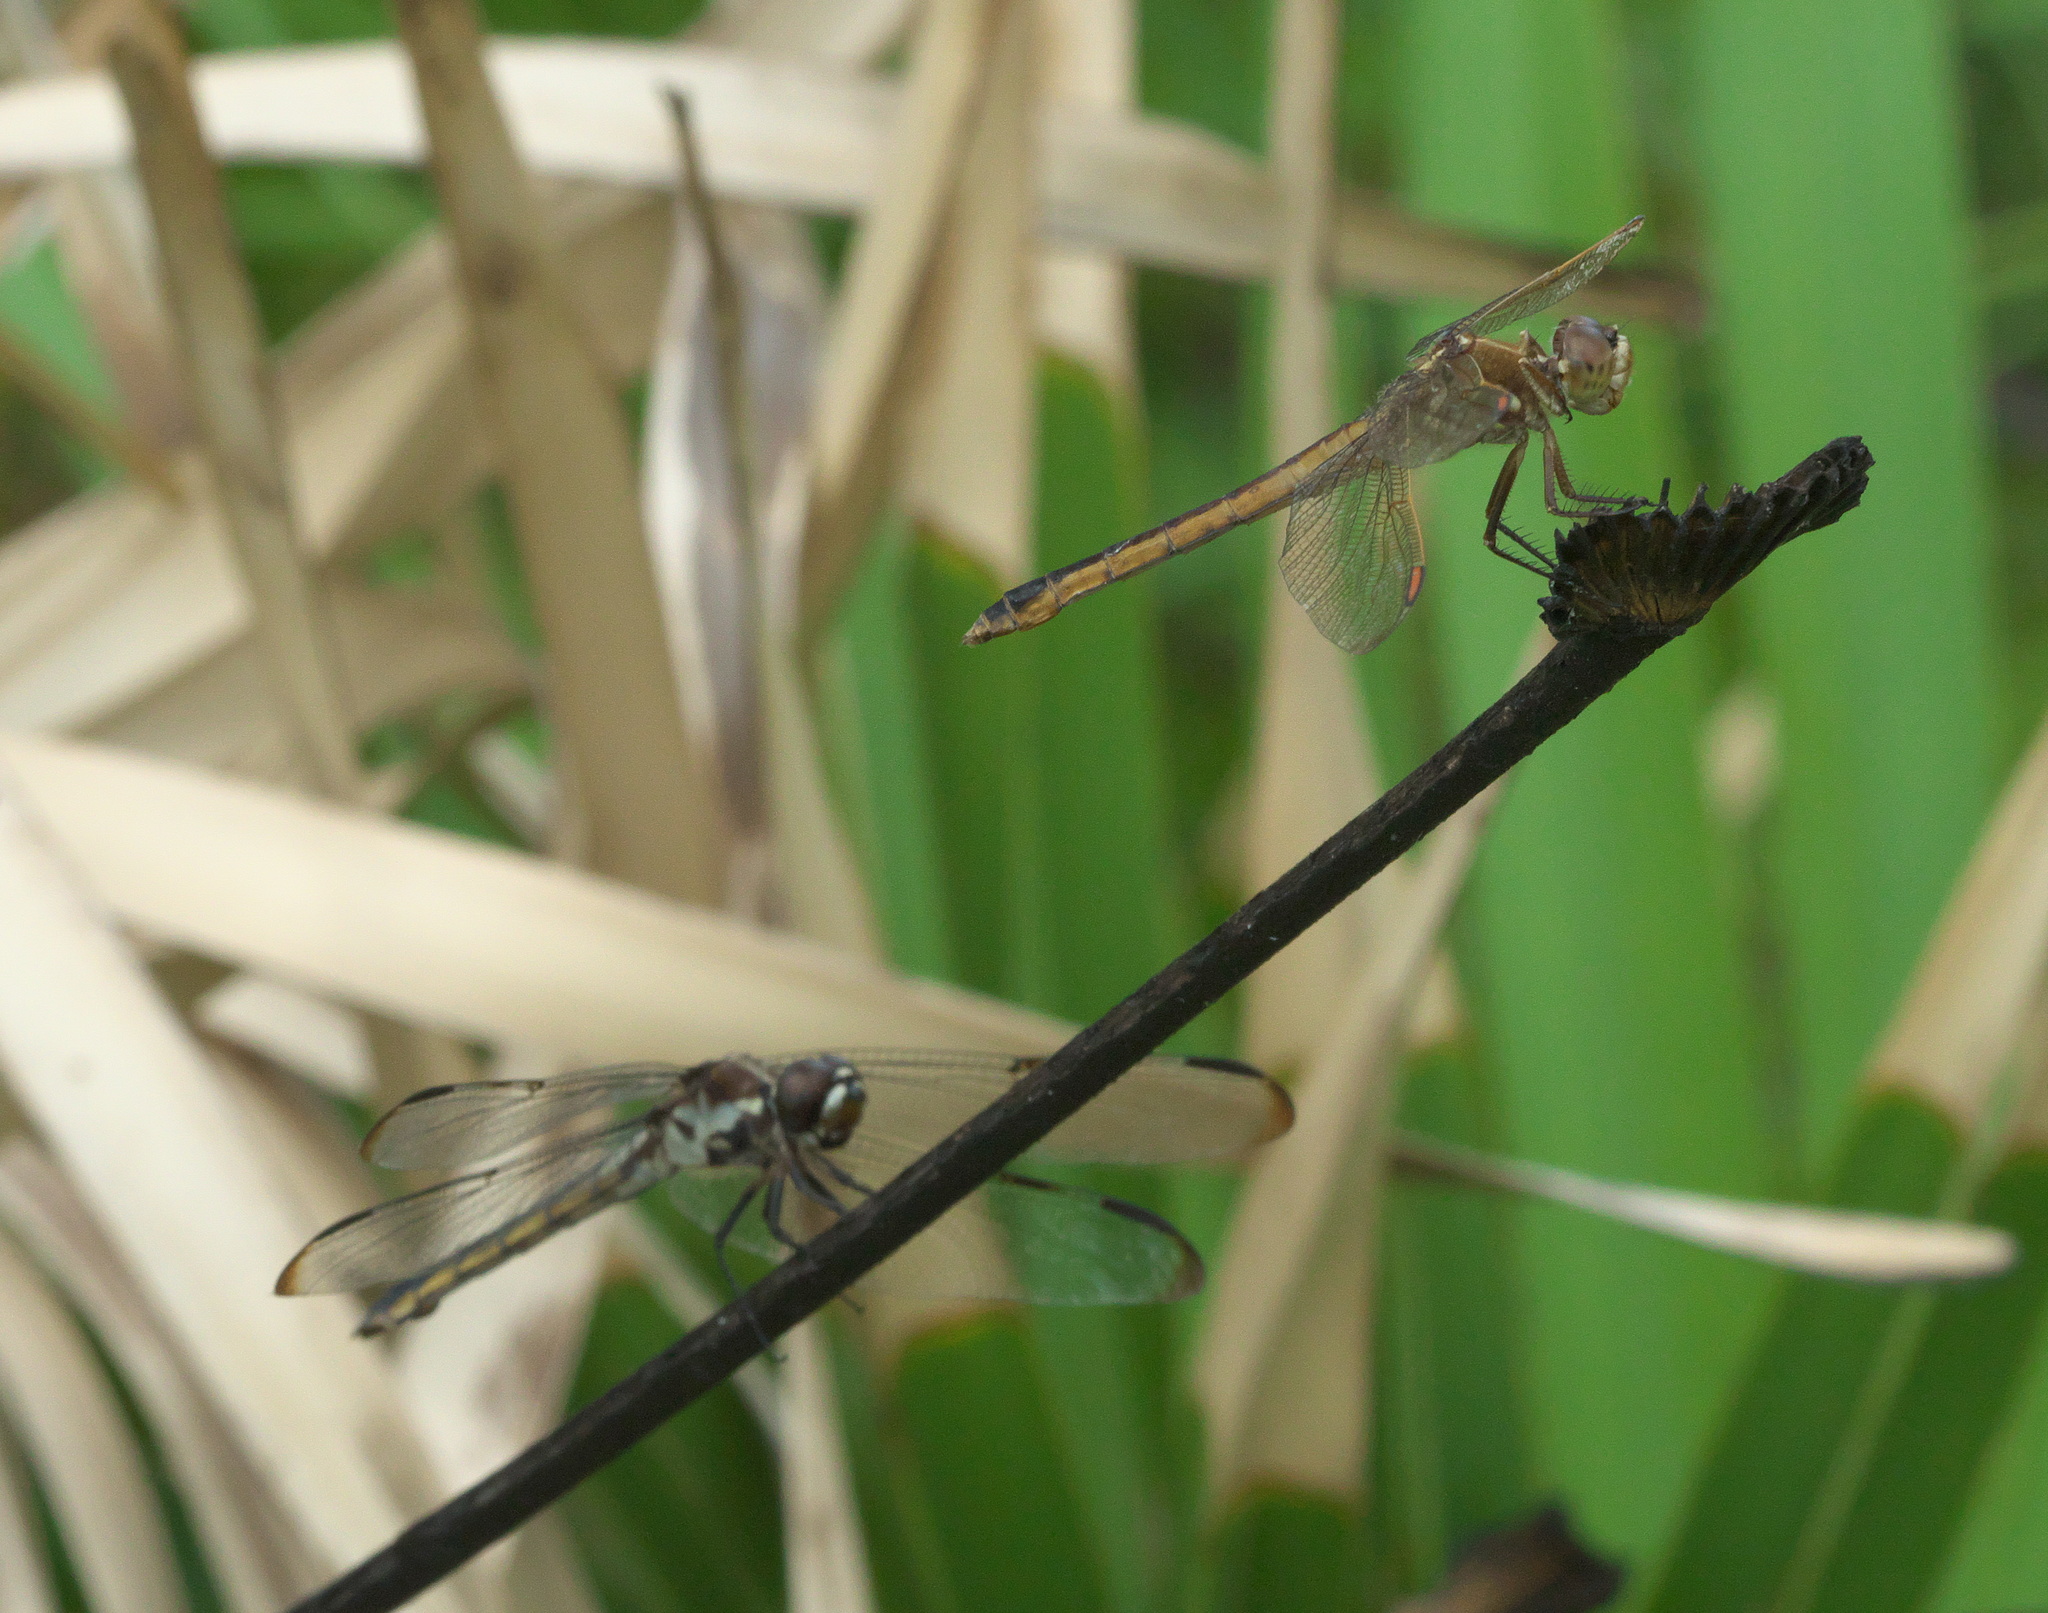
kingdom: Animalia
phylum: Arthropoda
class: Insecta
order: Odonata
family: Libellulidae
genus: Libellula
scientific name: Libellula auripennis
